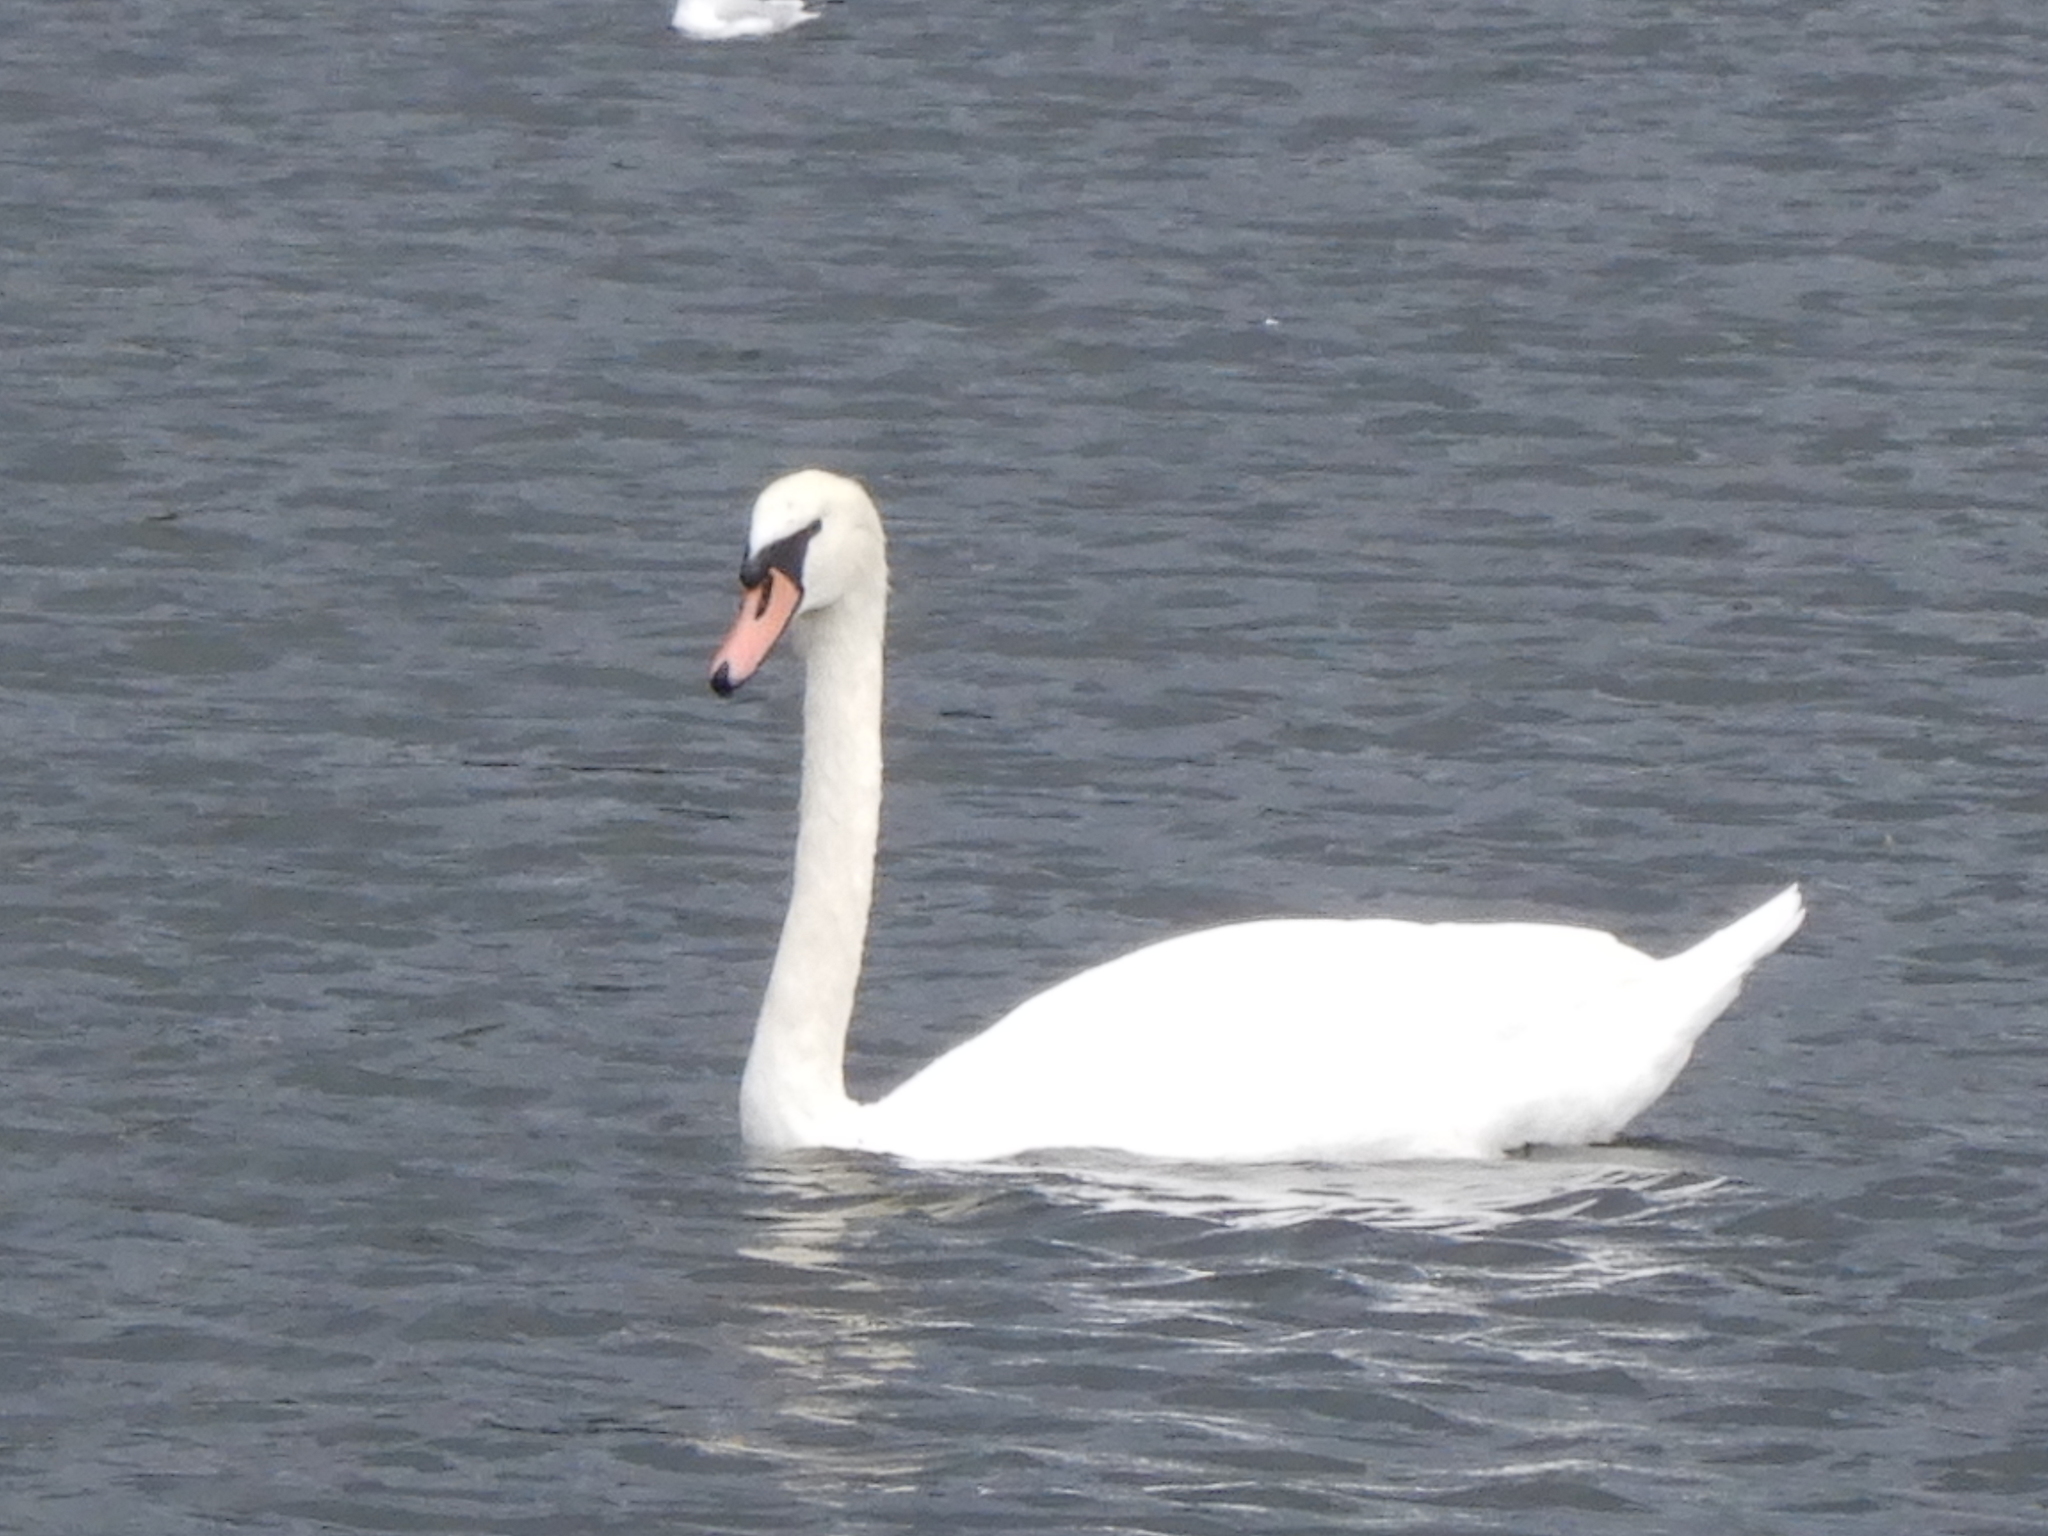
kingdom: Animalia
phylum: Chordata
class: Aves
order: Anseriformes
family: Anatidae
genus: Cygnus
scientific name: Cygnus olor
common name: Mute swan
